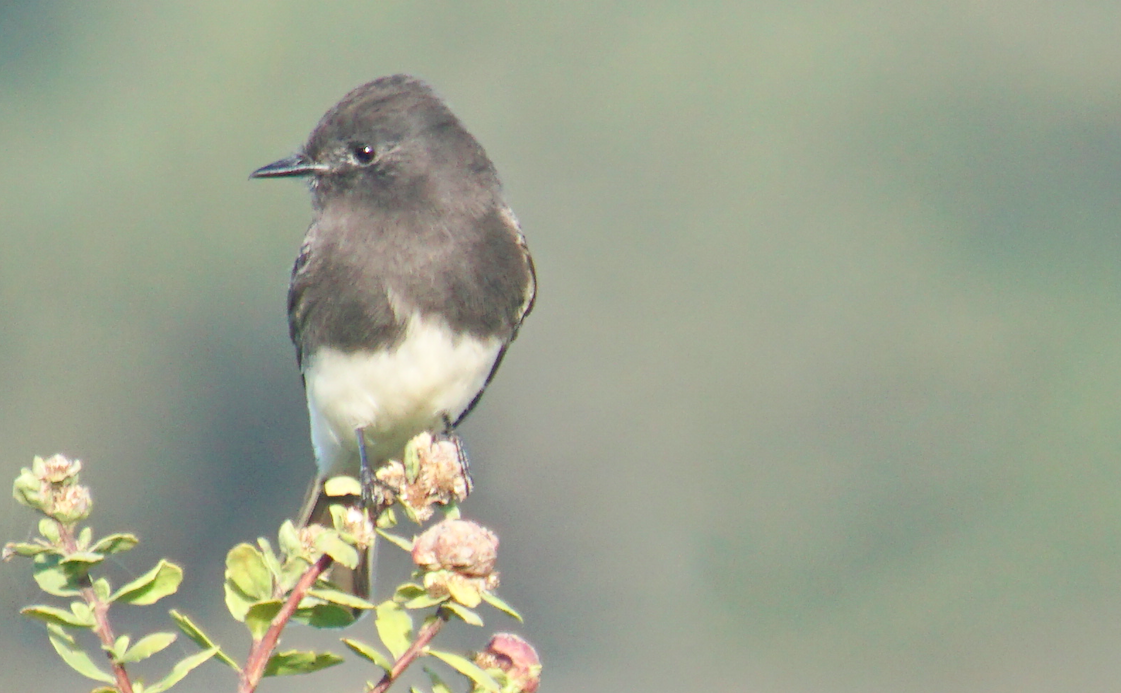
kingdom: Animalia
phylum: Chordata
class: Aves
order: Passeriformes
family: Tyrannidae
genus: Sayornis
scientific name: Sayornis nigricans
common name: Black phoebe
